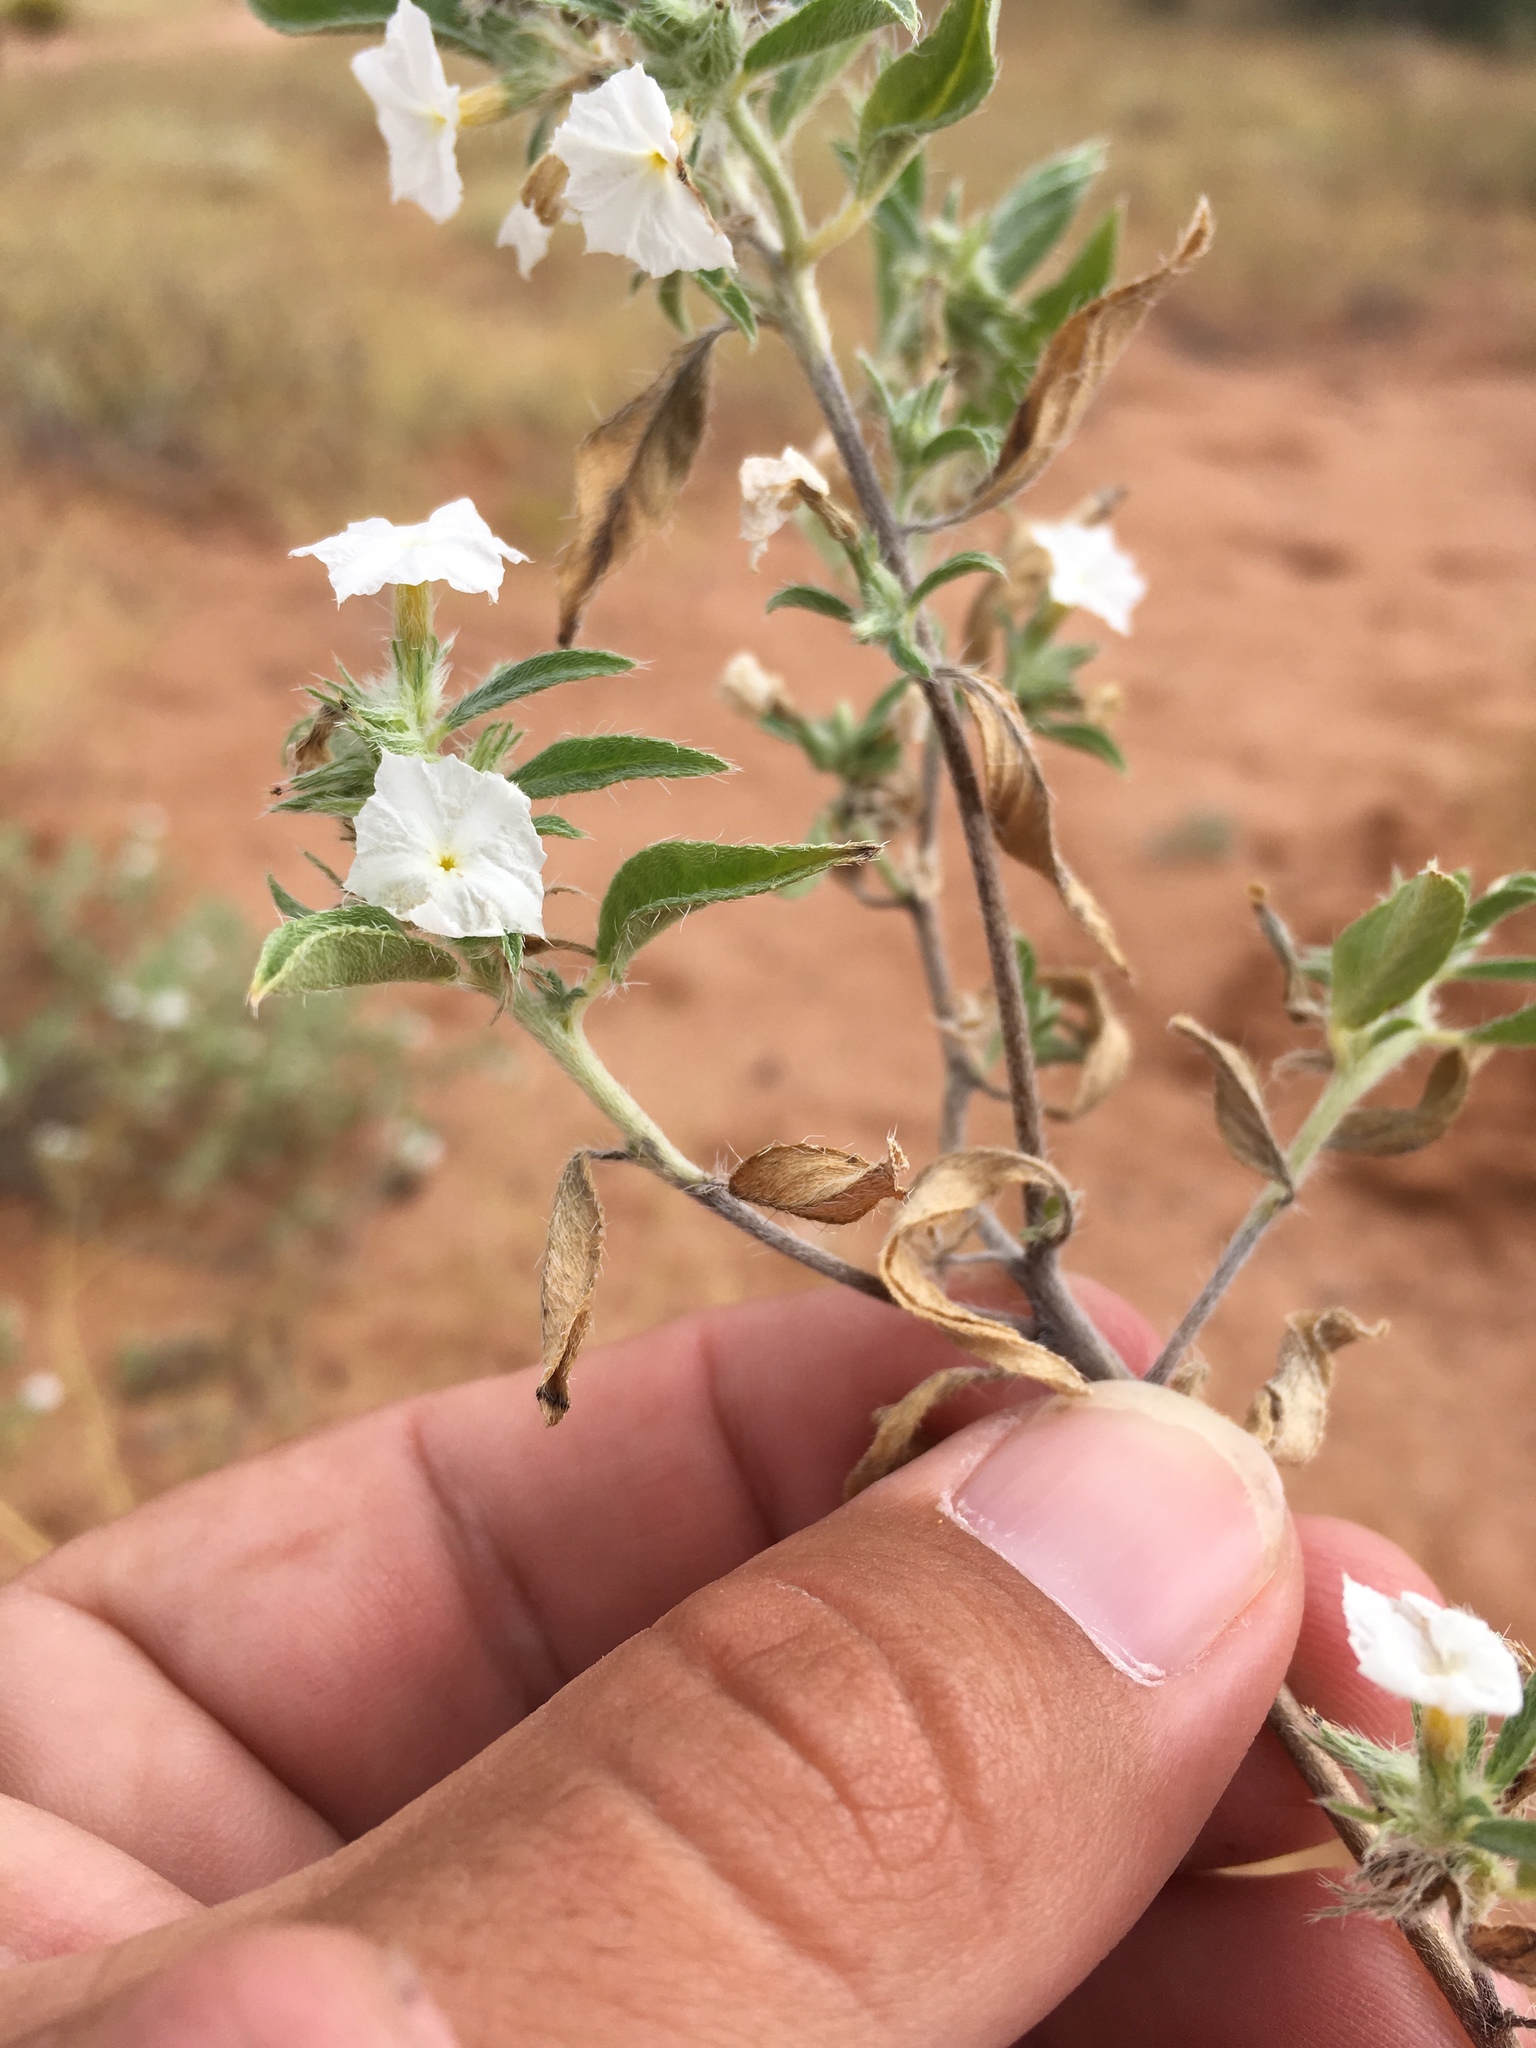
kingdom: Plantae
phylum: Tracheophyta
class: Magnoliopsida
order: Boraginales
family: Heliotropiaceae
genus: Euploca
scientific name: Euploca convolvulacea
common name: Bindweed heliotrope
